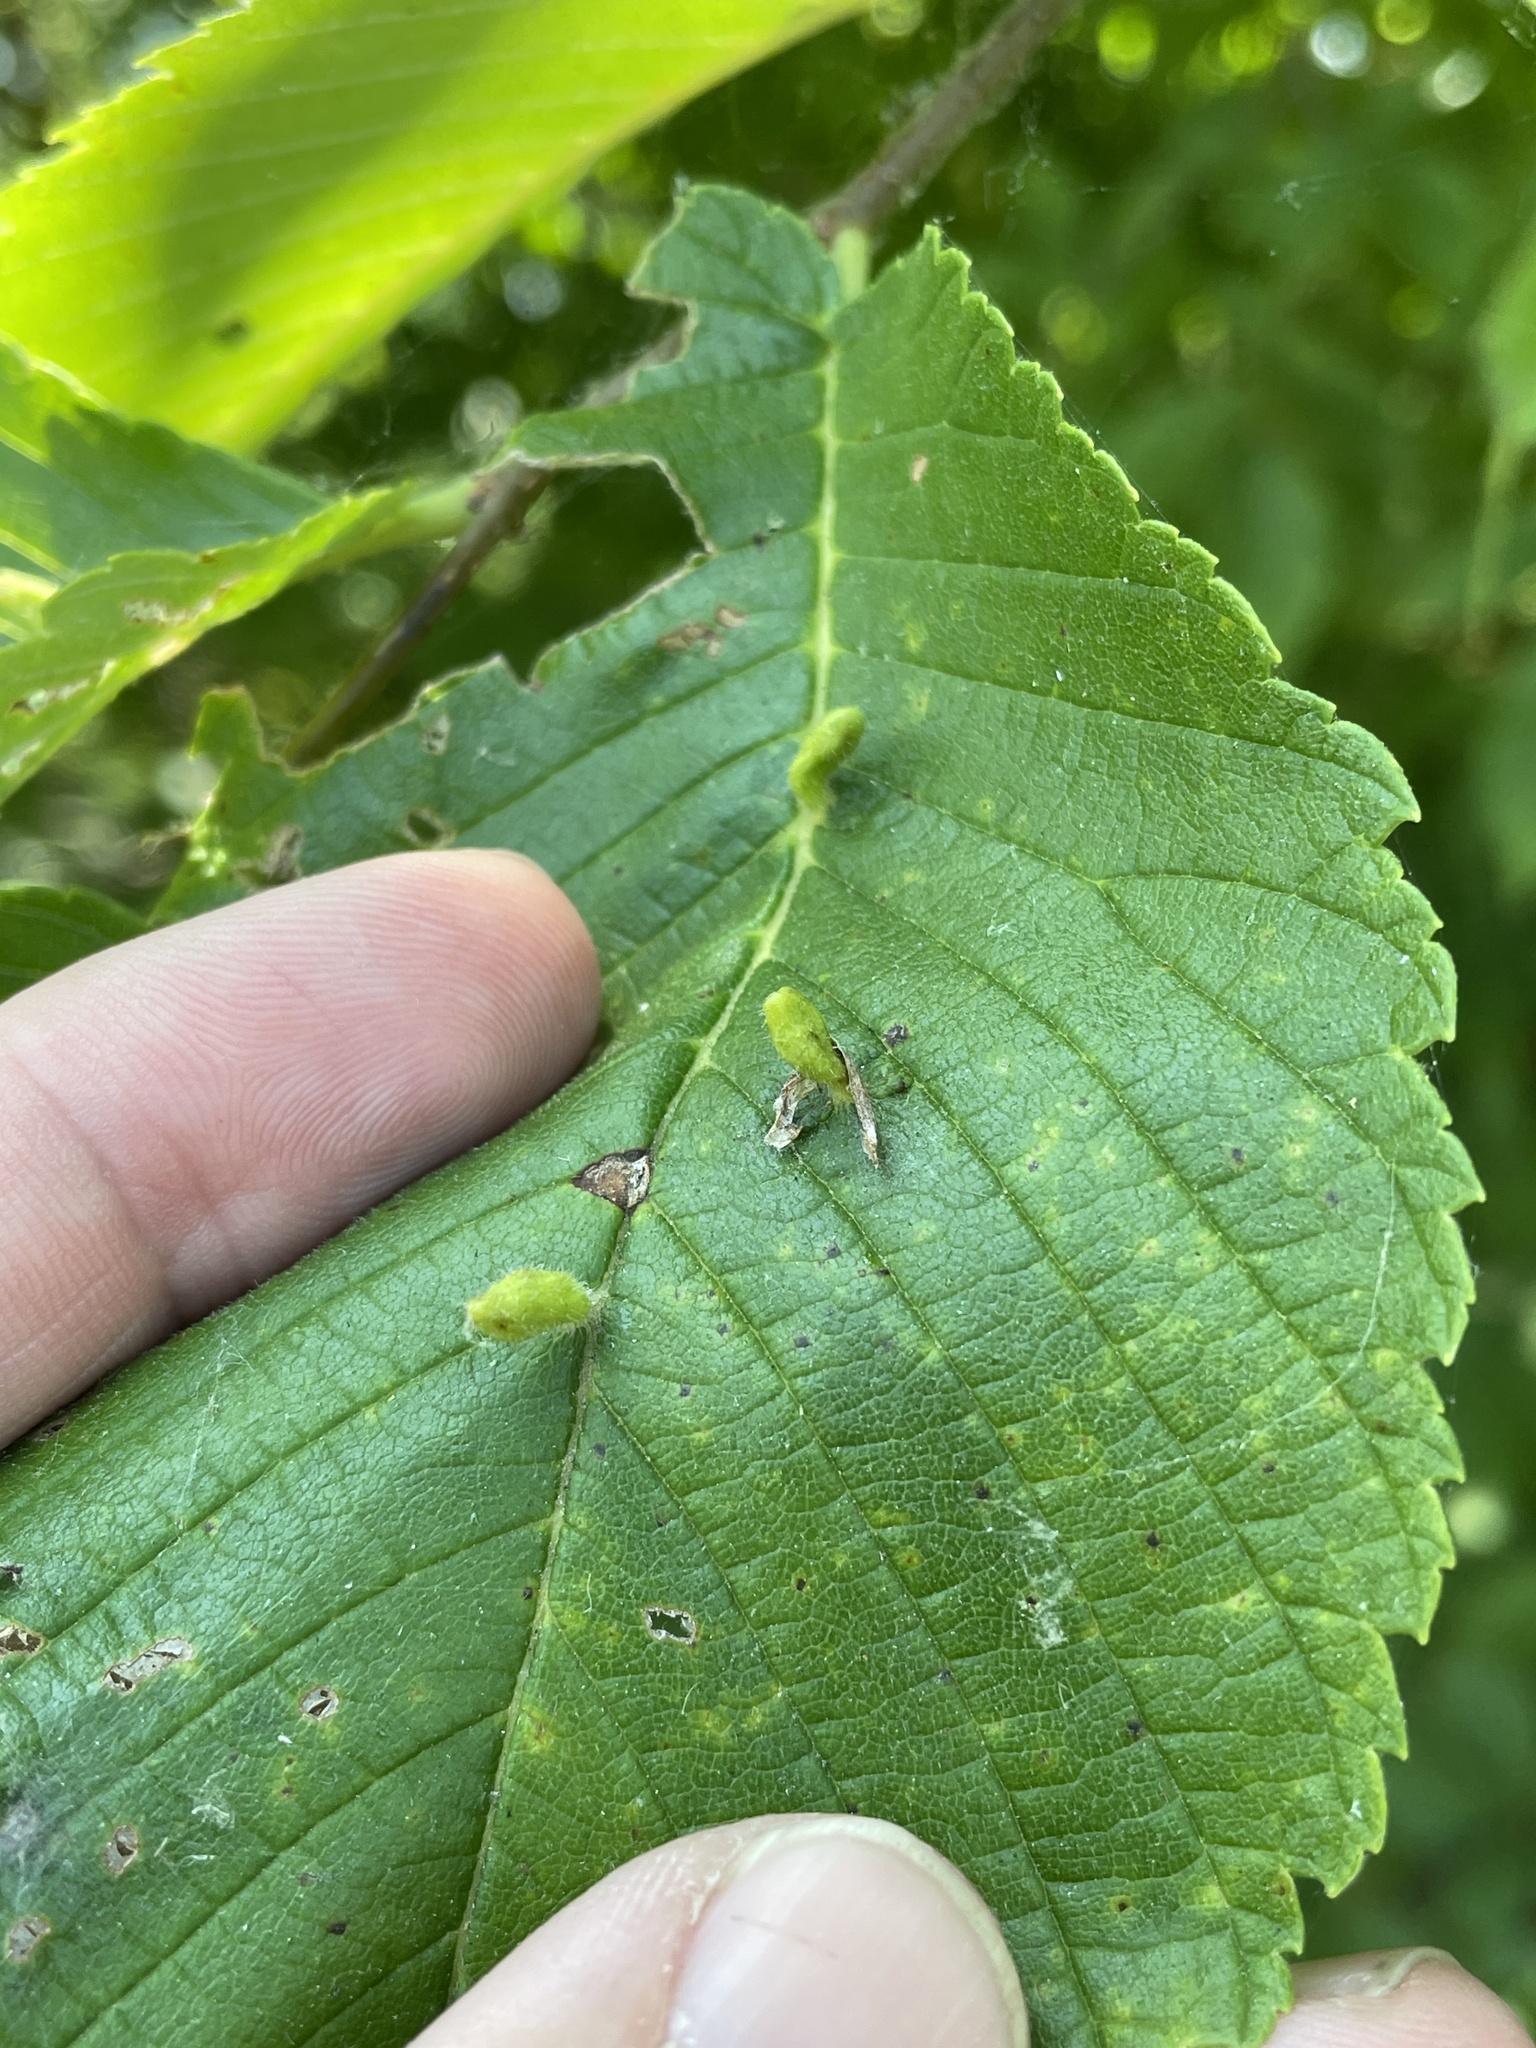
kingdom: Animalia
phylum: Arthropoda
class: Arachnida
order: Trombidiformes
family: Eriophyidae
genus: Aceria
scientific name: Aceria
